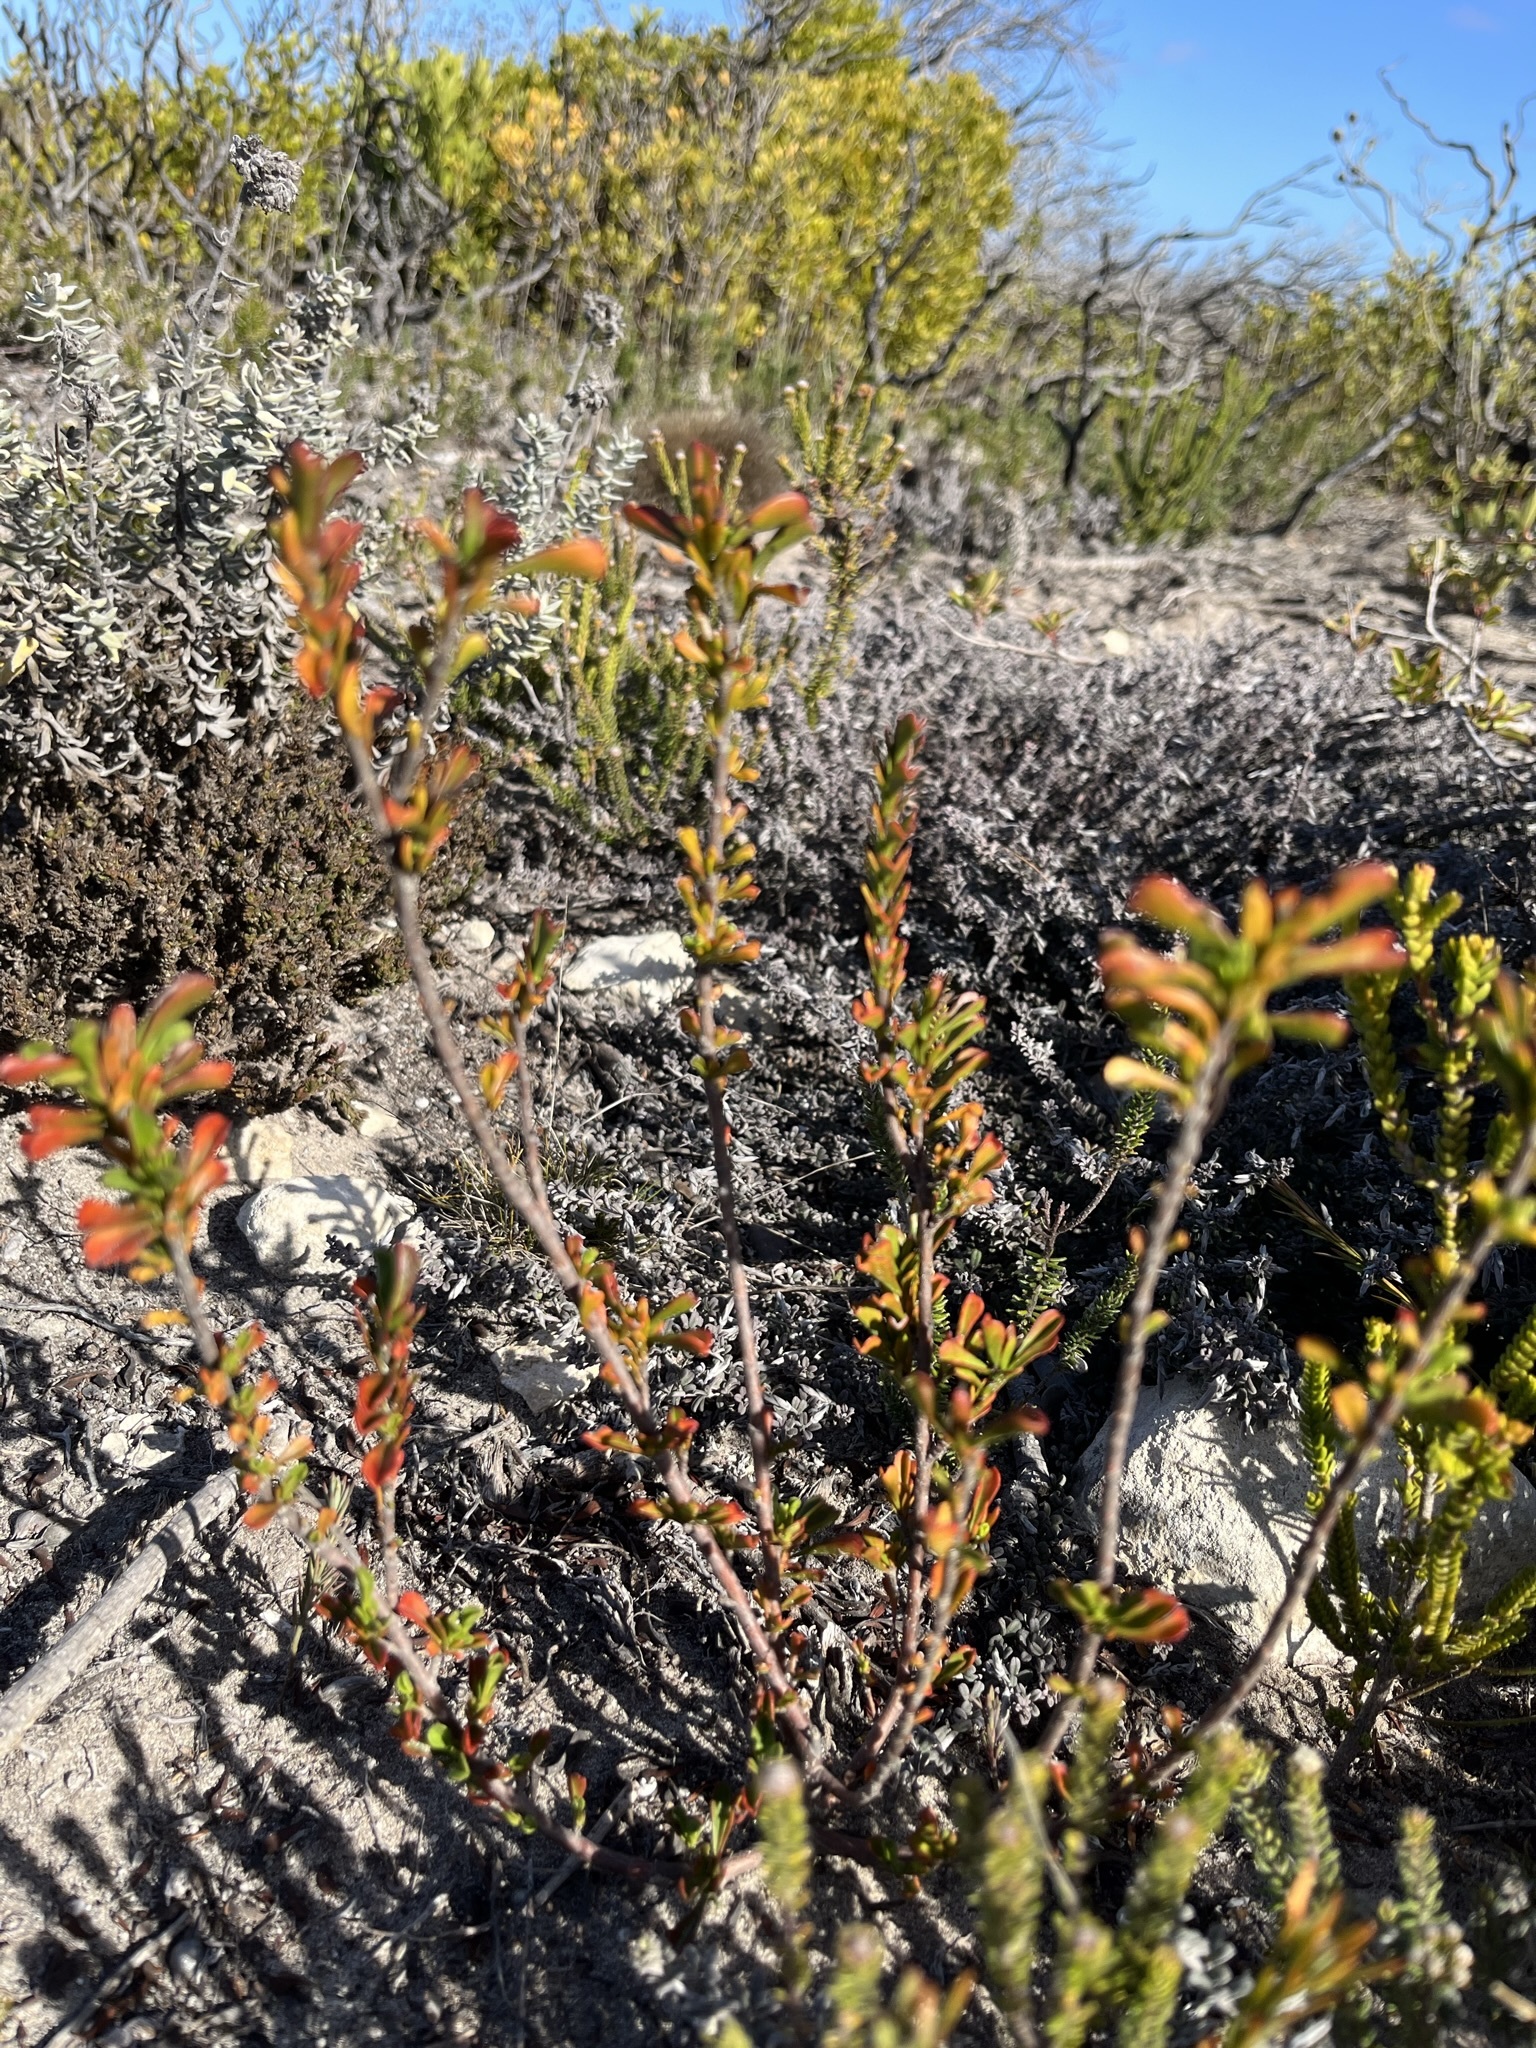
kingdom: Plantae
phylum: Tracheophyta
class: Magnoliopsida
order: Malvales
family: Malvaceae
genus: Hermannia
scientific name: Hermannia concinnifolia
